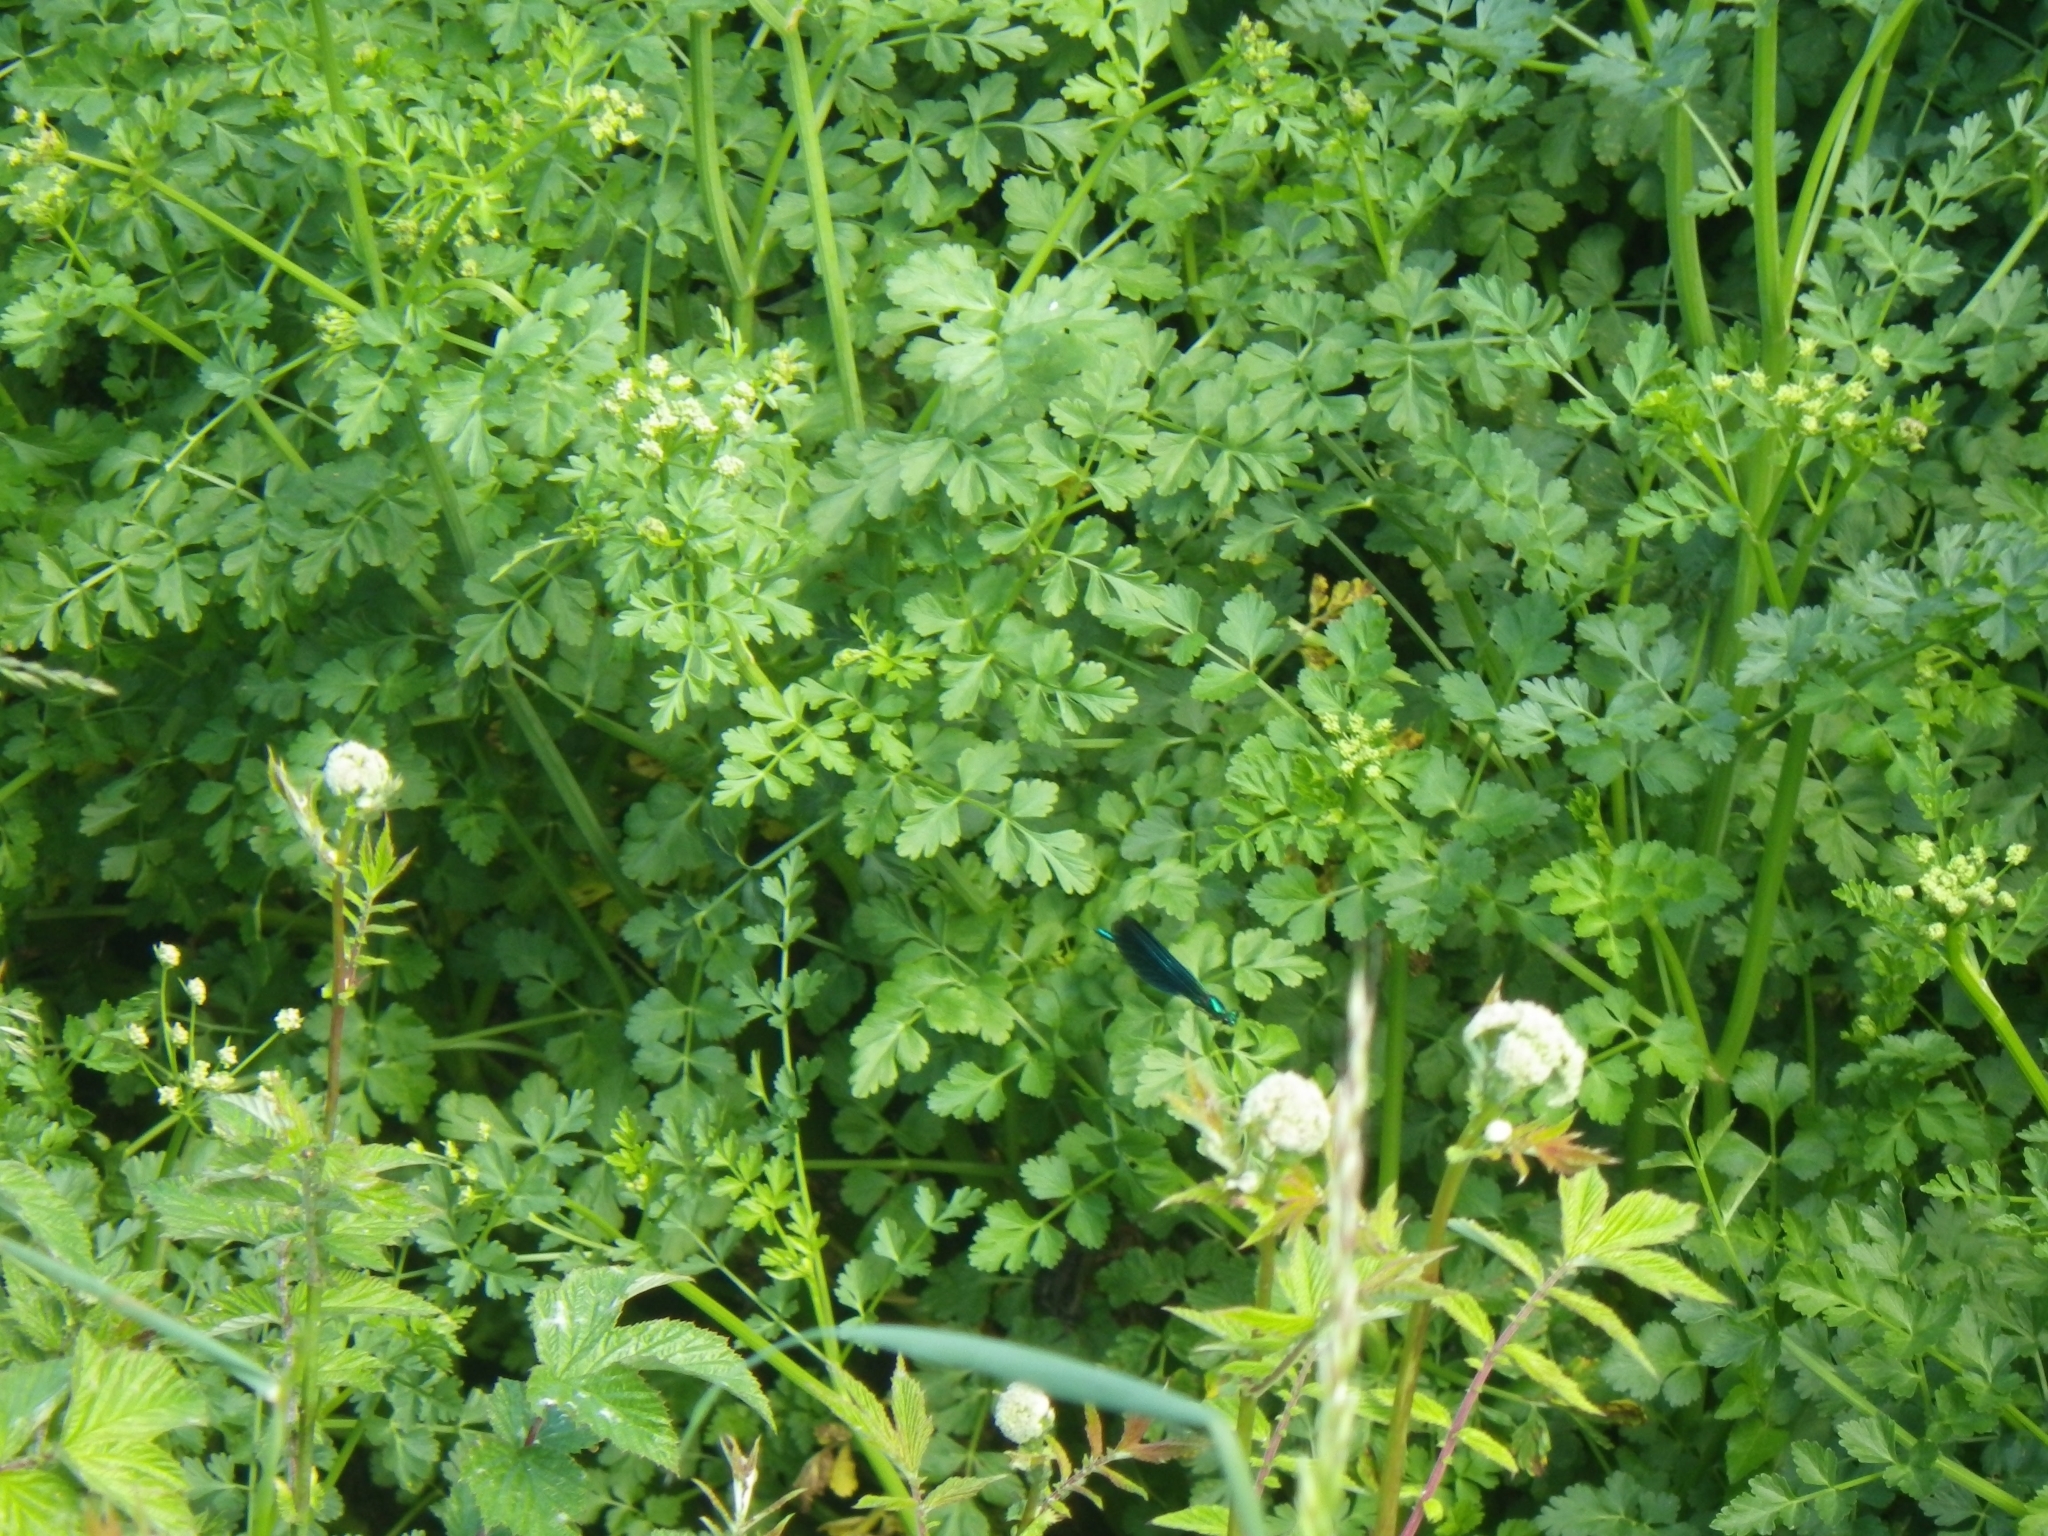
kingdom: Animalia
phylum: Arthropoda
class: Insecta
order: Odonata
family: Calopterygidae
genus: Calopteryx
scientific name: Calopteryx virgo
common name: Beautiful demoiselle
